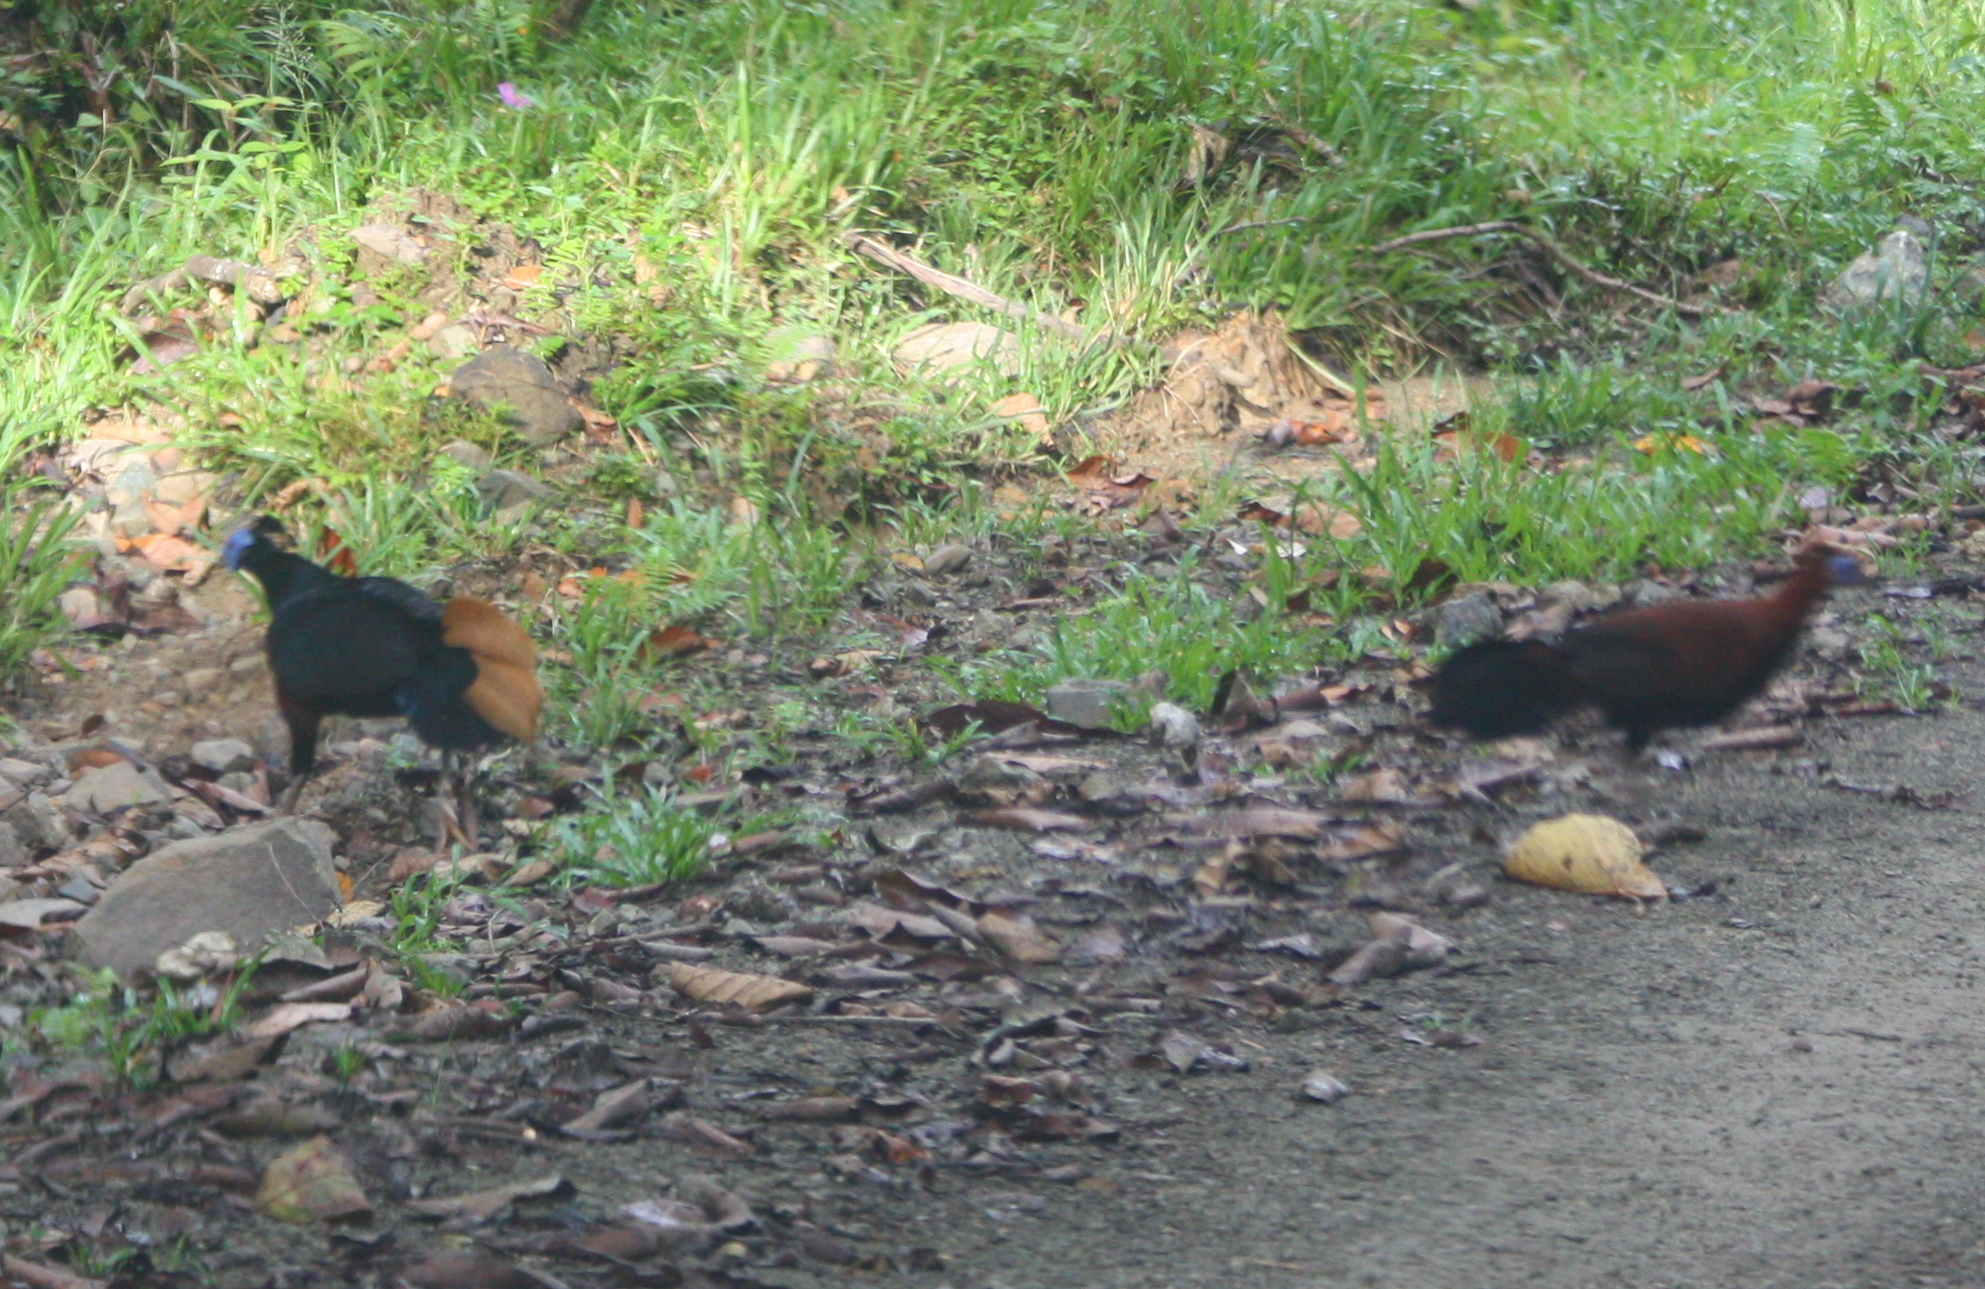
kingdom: Animalia
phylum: Chordata
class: Aves
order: Galliformes
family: Phasianidae
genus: Lophura
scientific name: Lophura ignita
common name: Crested fireback
